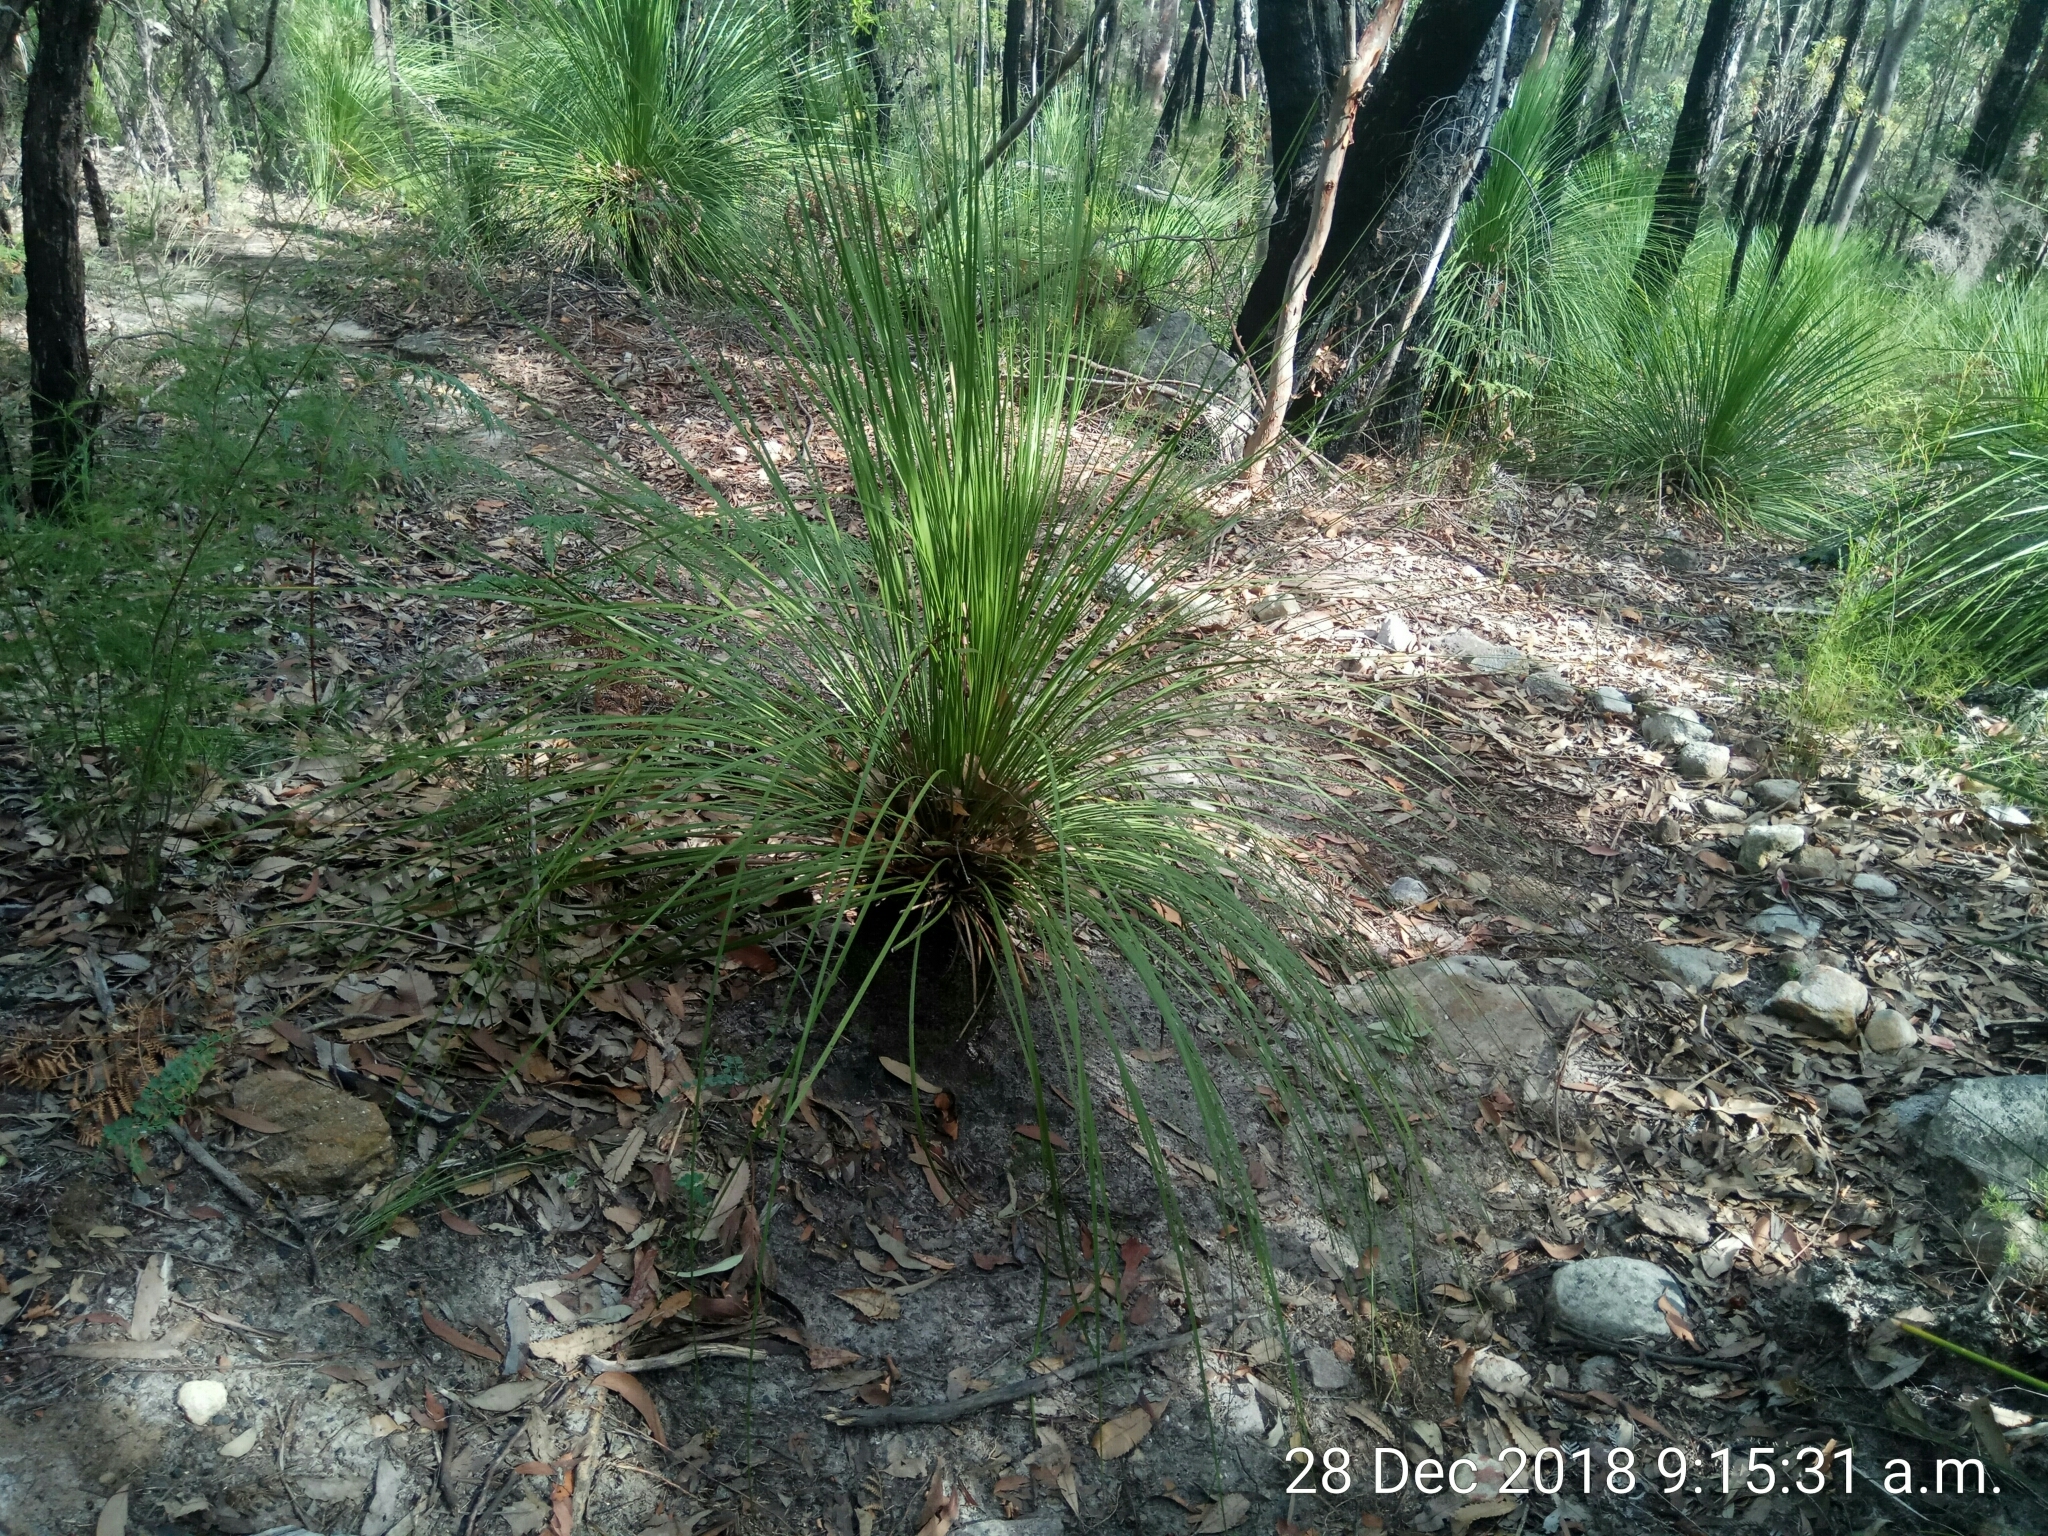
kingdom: Plantae
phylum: Tracheophyta
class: Liliopsida
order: Asparagales
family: Asphodelaceae
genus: Xanthorrhoea
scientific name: Xanthorrhoea arborea
